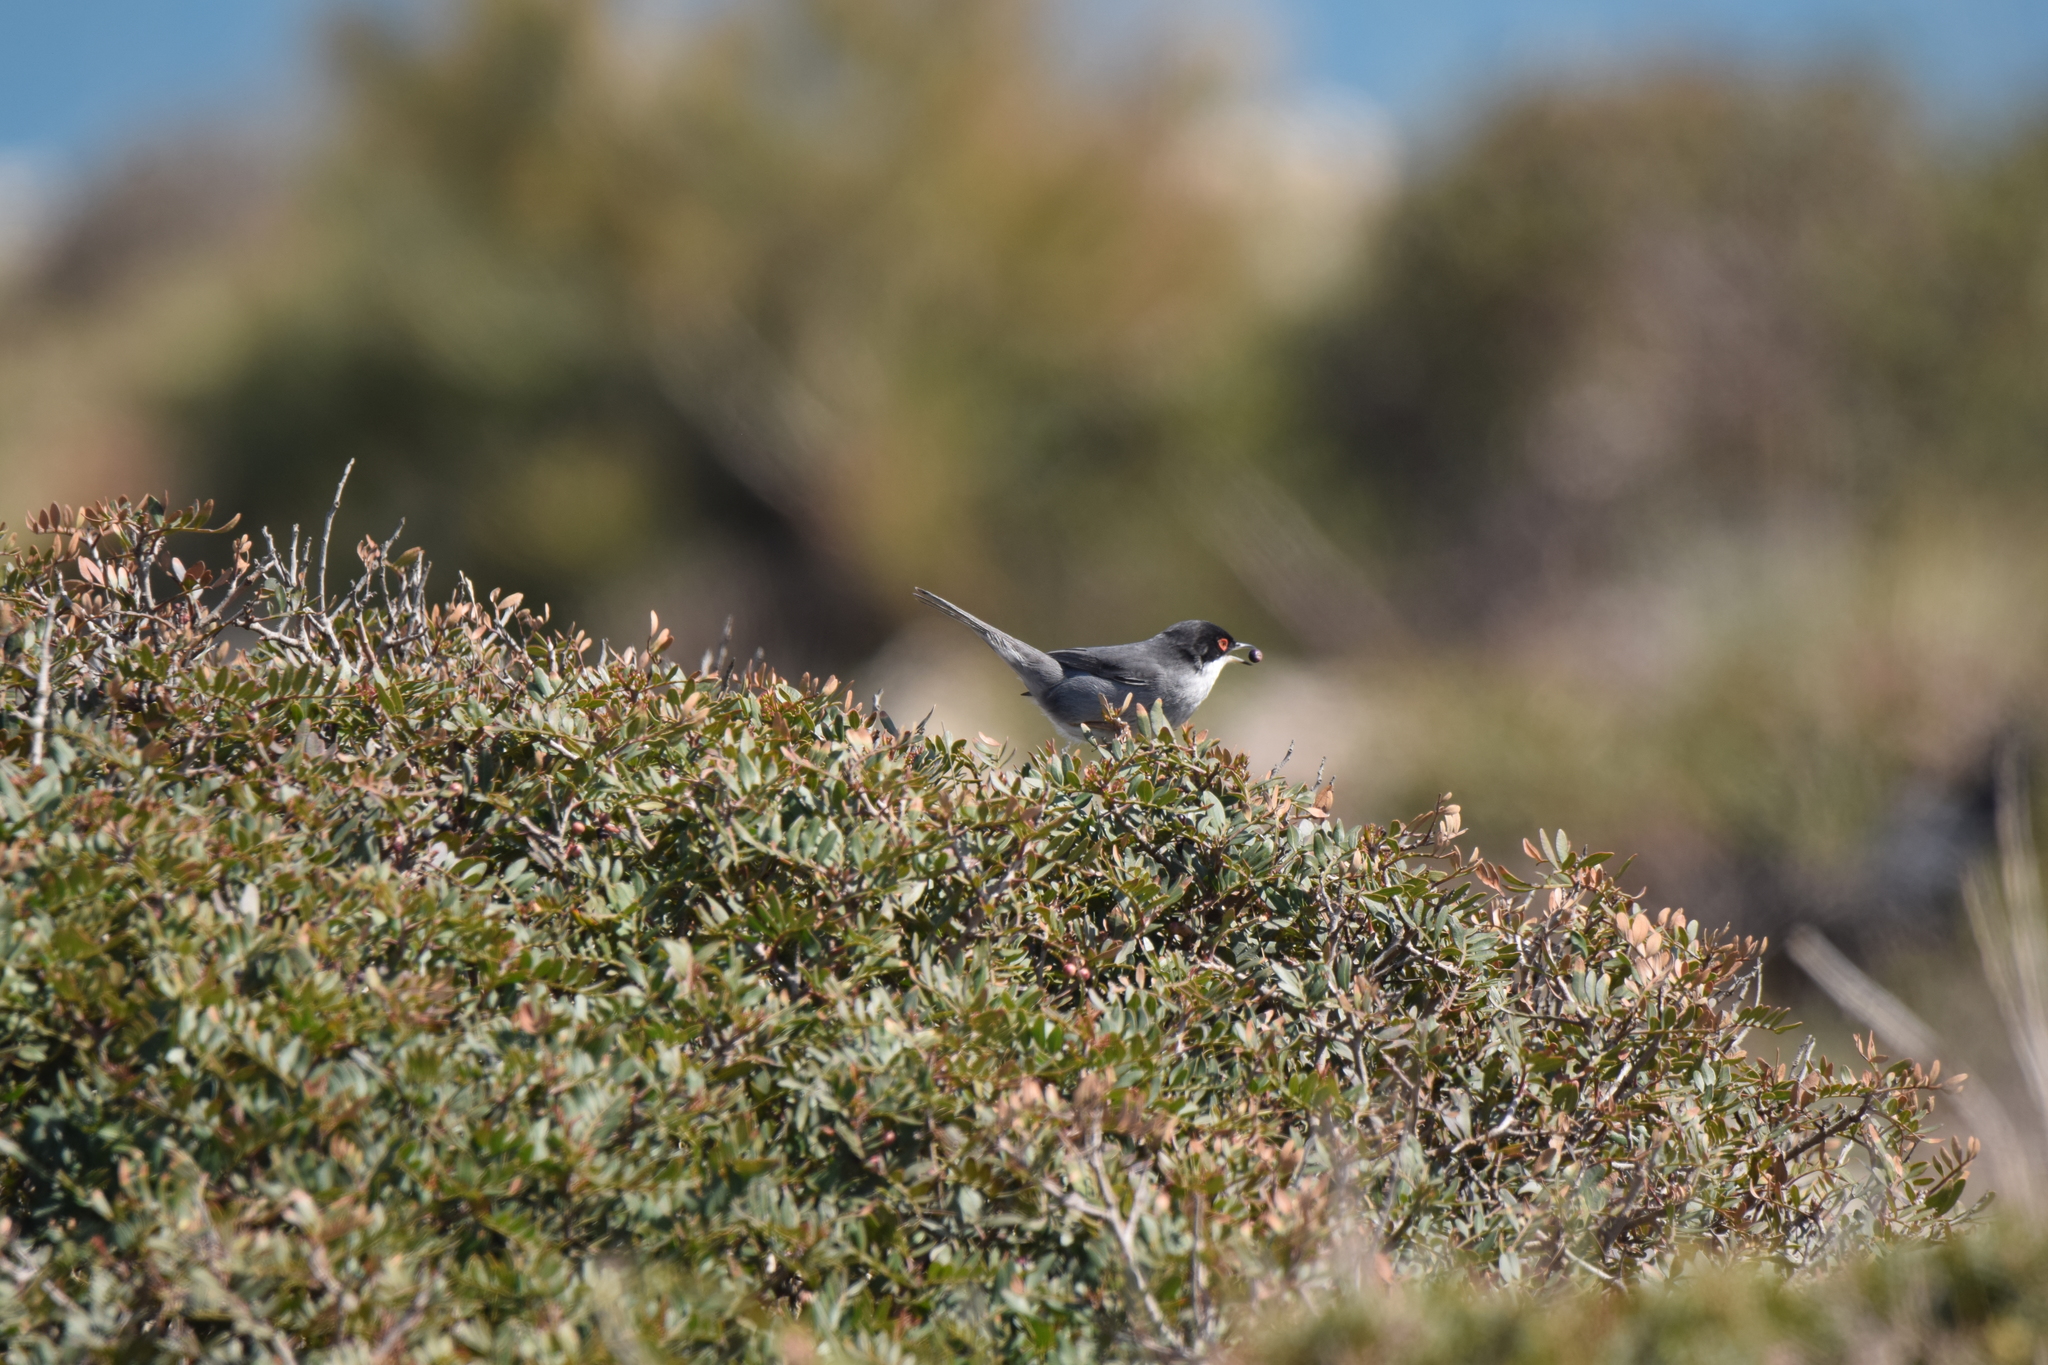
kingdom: Animalia
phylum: Chordata
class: Aves
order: Passeriformes
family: Sylviidae
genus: Curruca
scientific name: Curruca melanocephala
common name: Sardinian warbler
